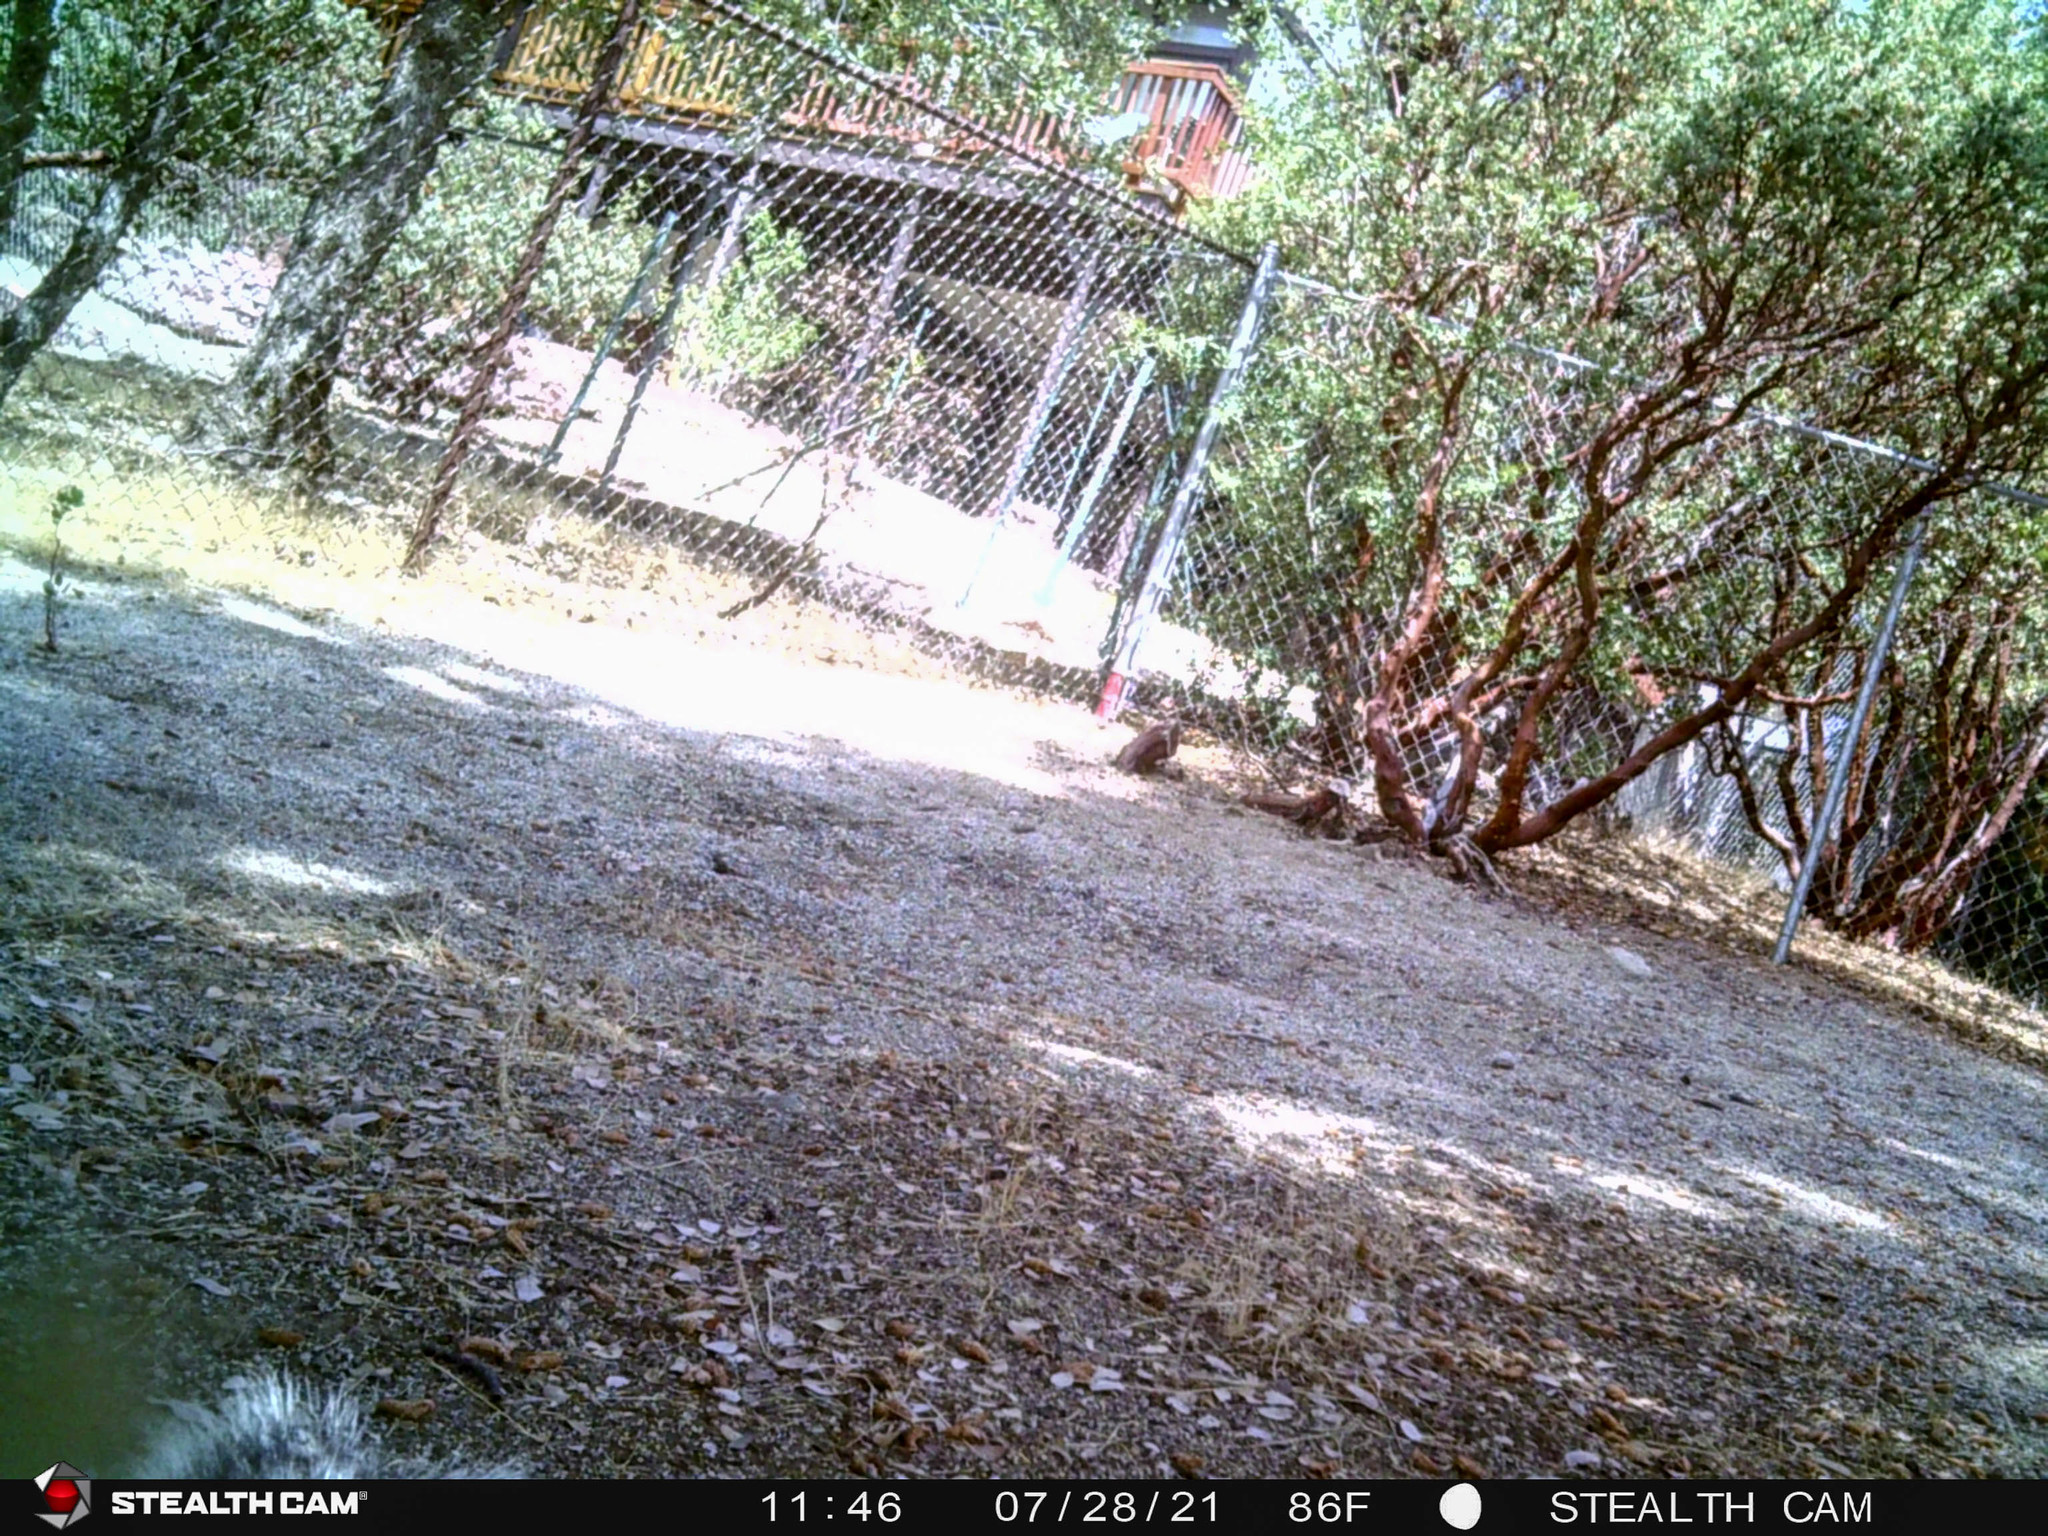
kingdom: Animalia
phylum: Chordata
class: Mammalia
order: Rodentia
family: Sciuridae
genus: Sciurus
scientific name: Sciurus griseus
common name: Western gray squirrel
